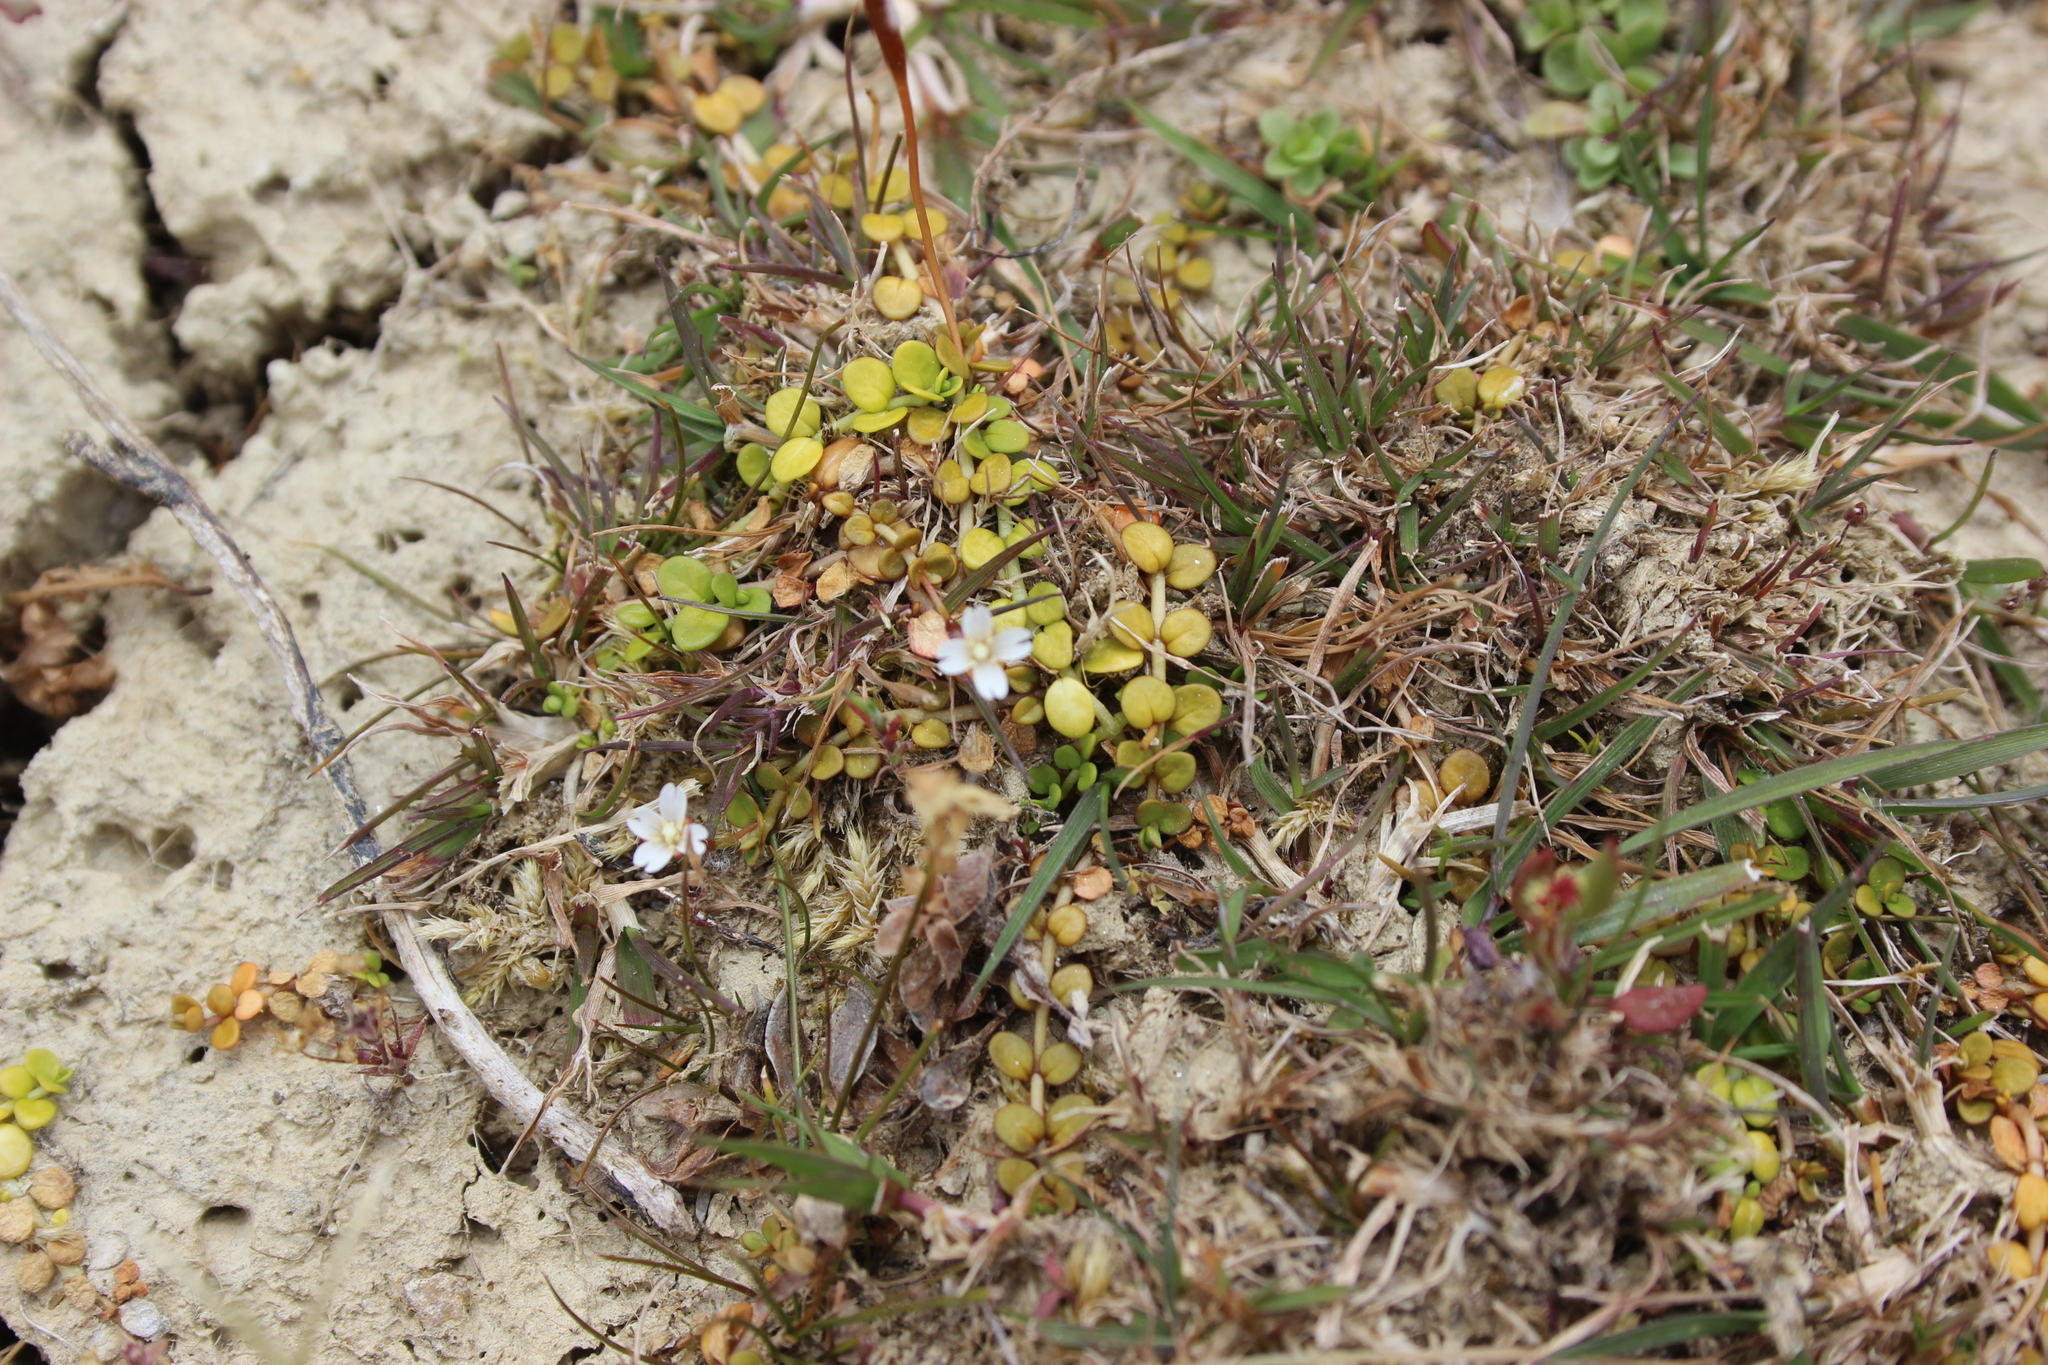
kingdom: Plantae
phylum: Tracheophyta
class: Magnoliopsida
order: Myrtales
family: Onagraceae
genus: Epilobium
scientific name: Epilobium brunnescens
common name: New zealand willowherb
